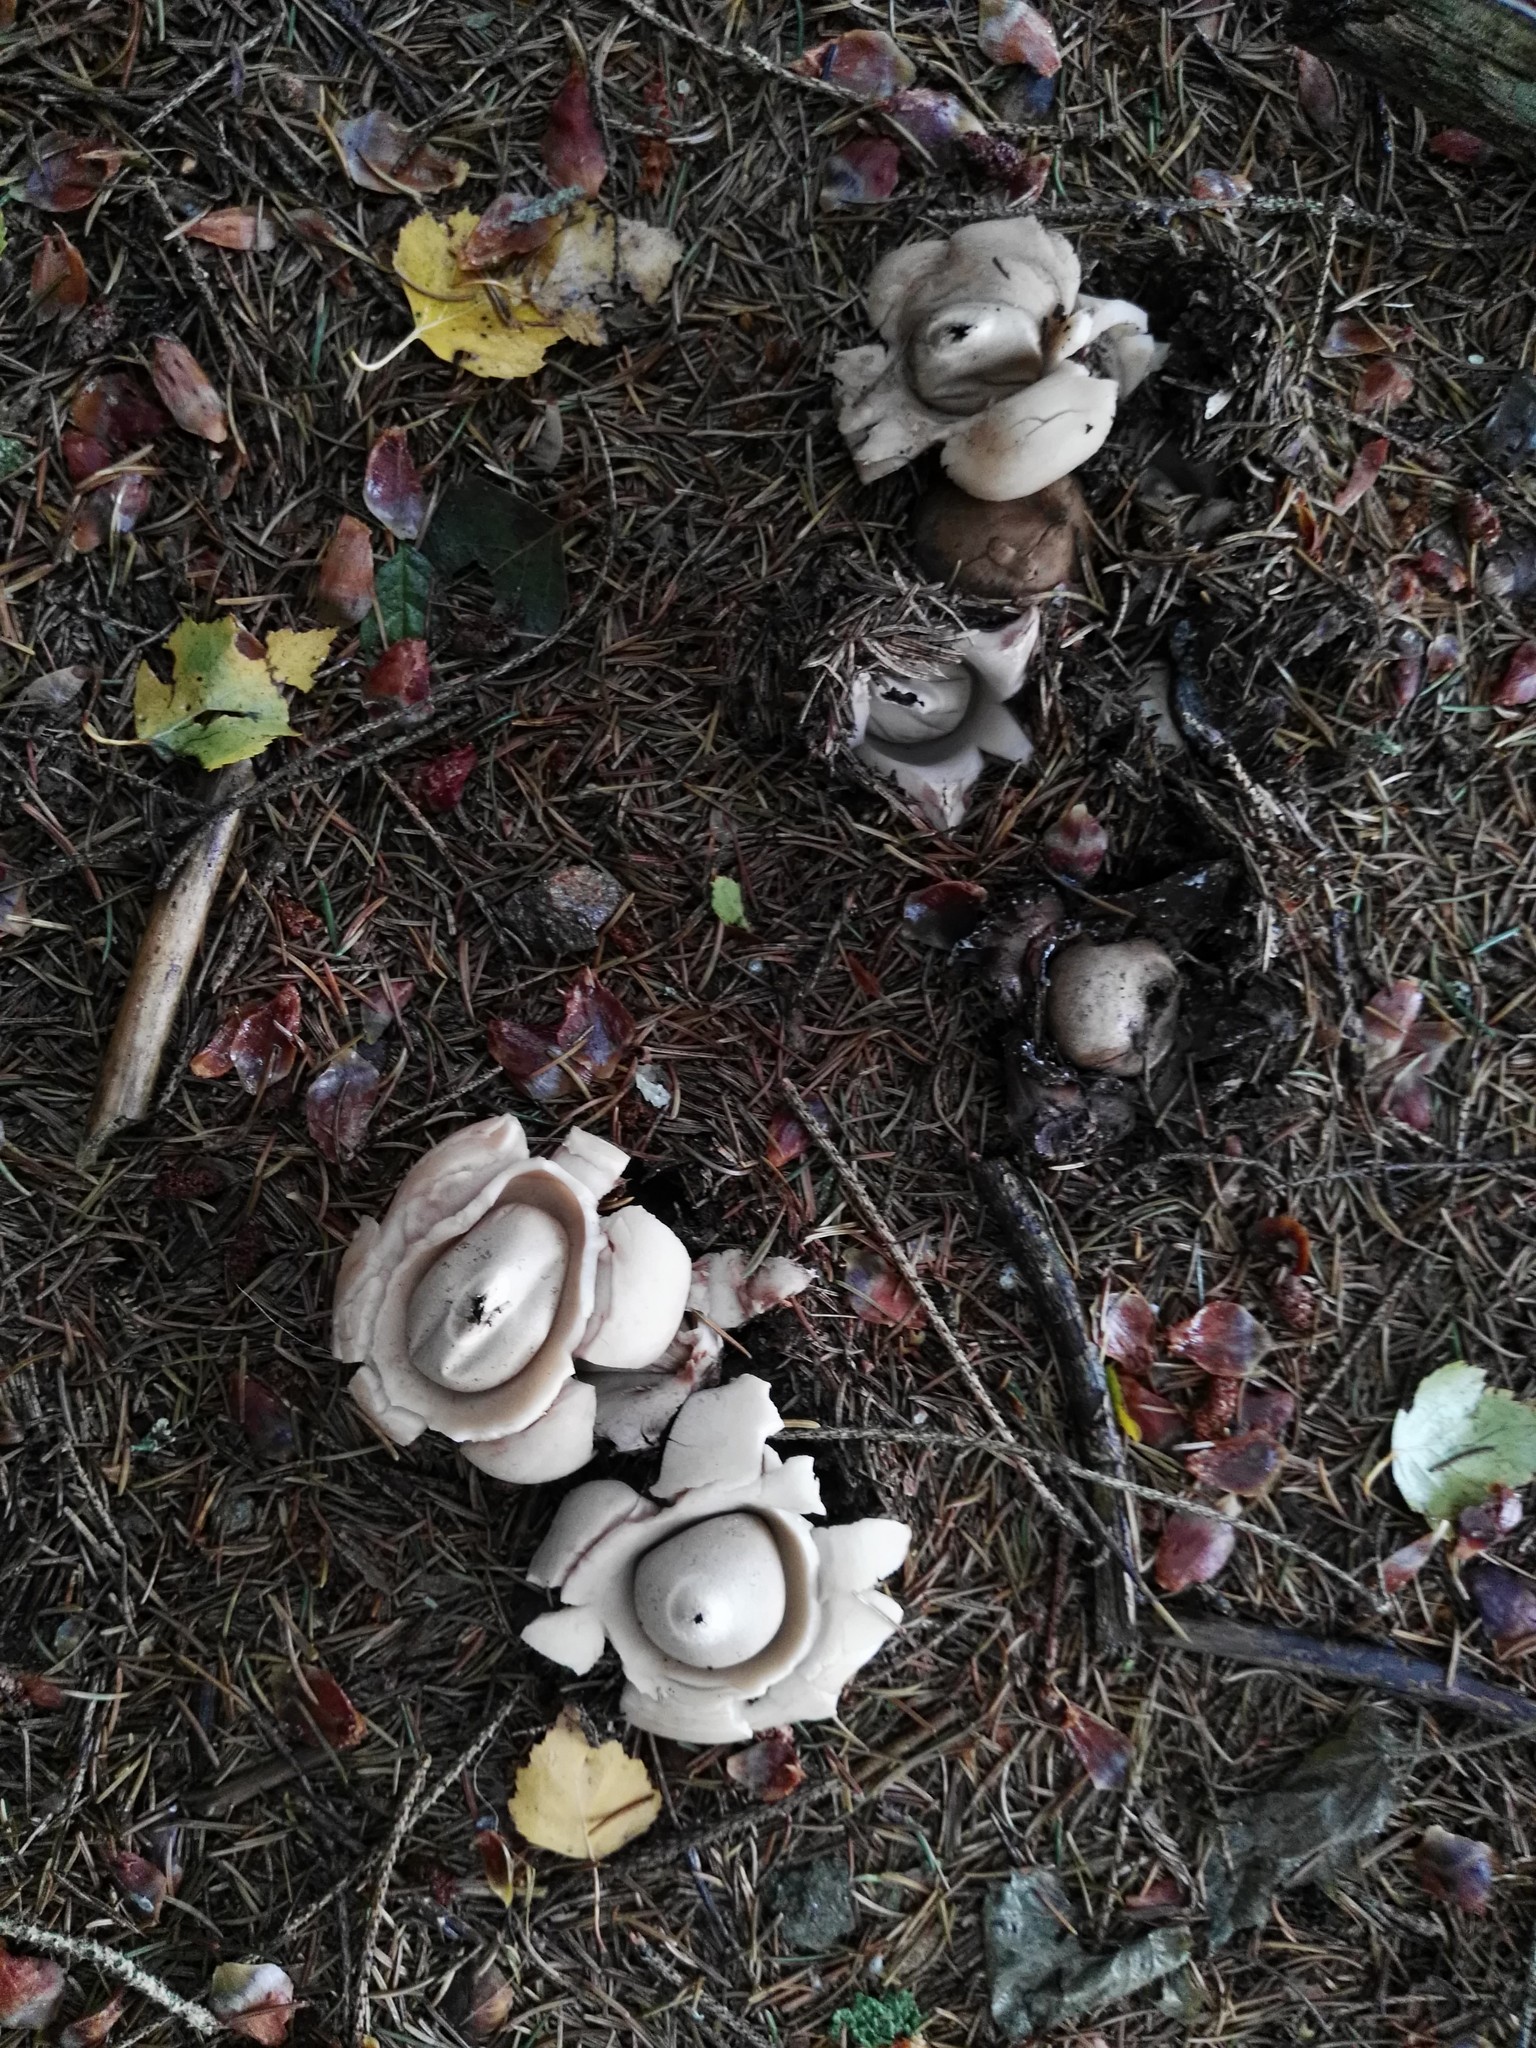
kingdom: Fungi
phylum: Basidiomycota
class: Agaricomycetes
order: Geastrales
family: Geastraceae
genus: Geastrum
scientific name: Geastrum triplex
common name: Collared earthstar
